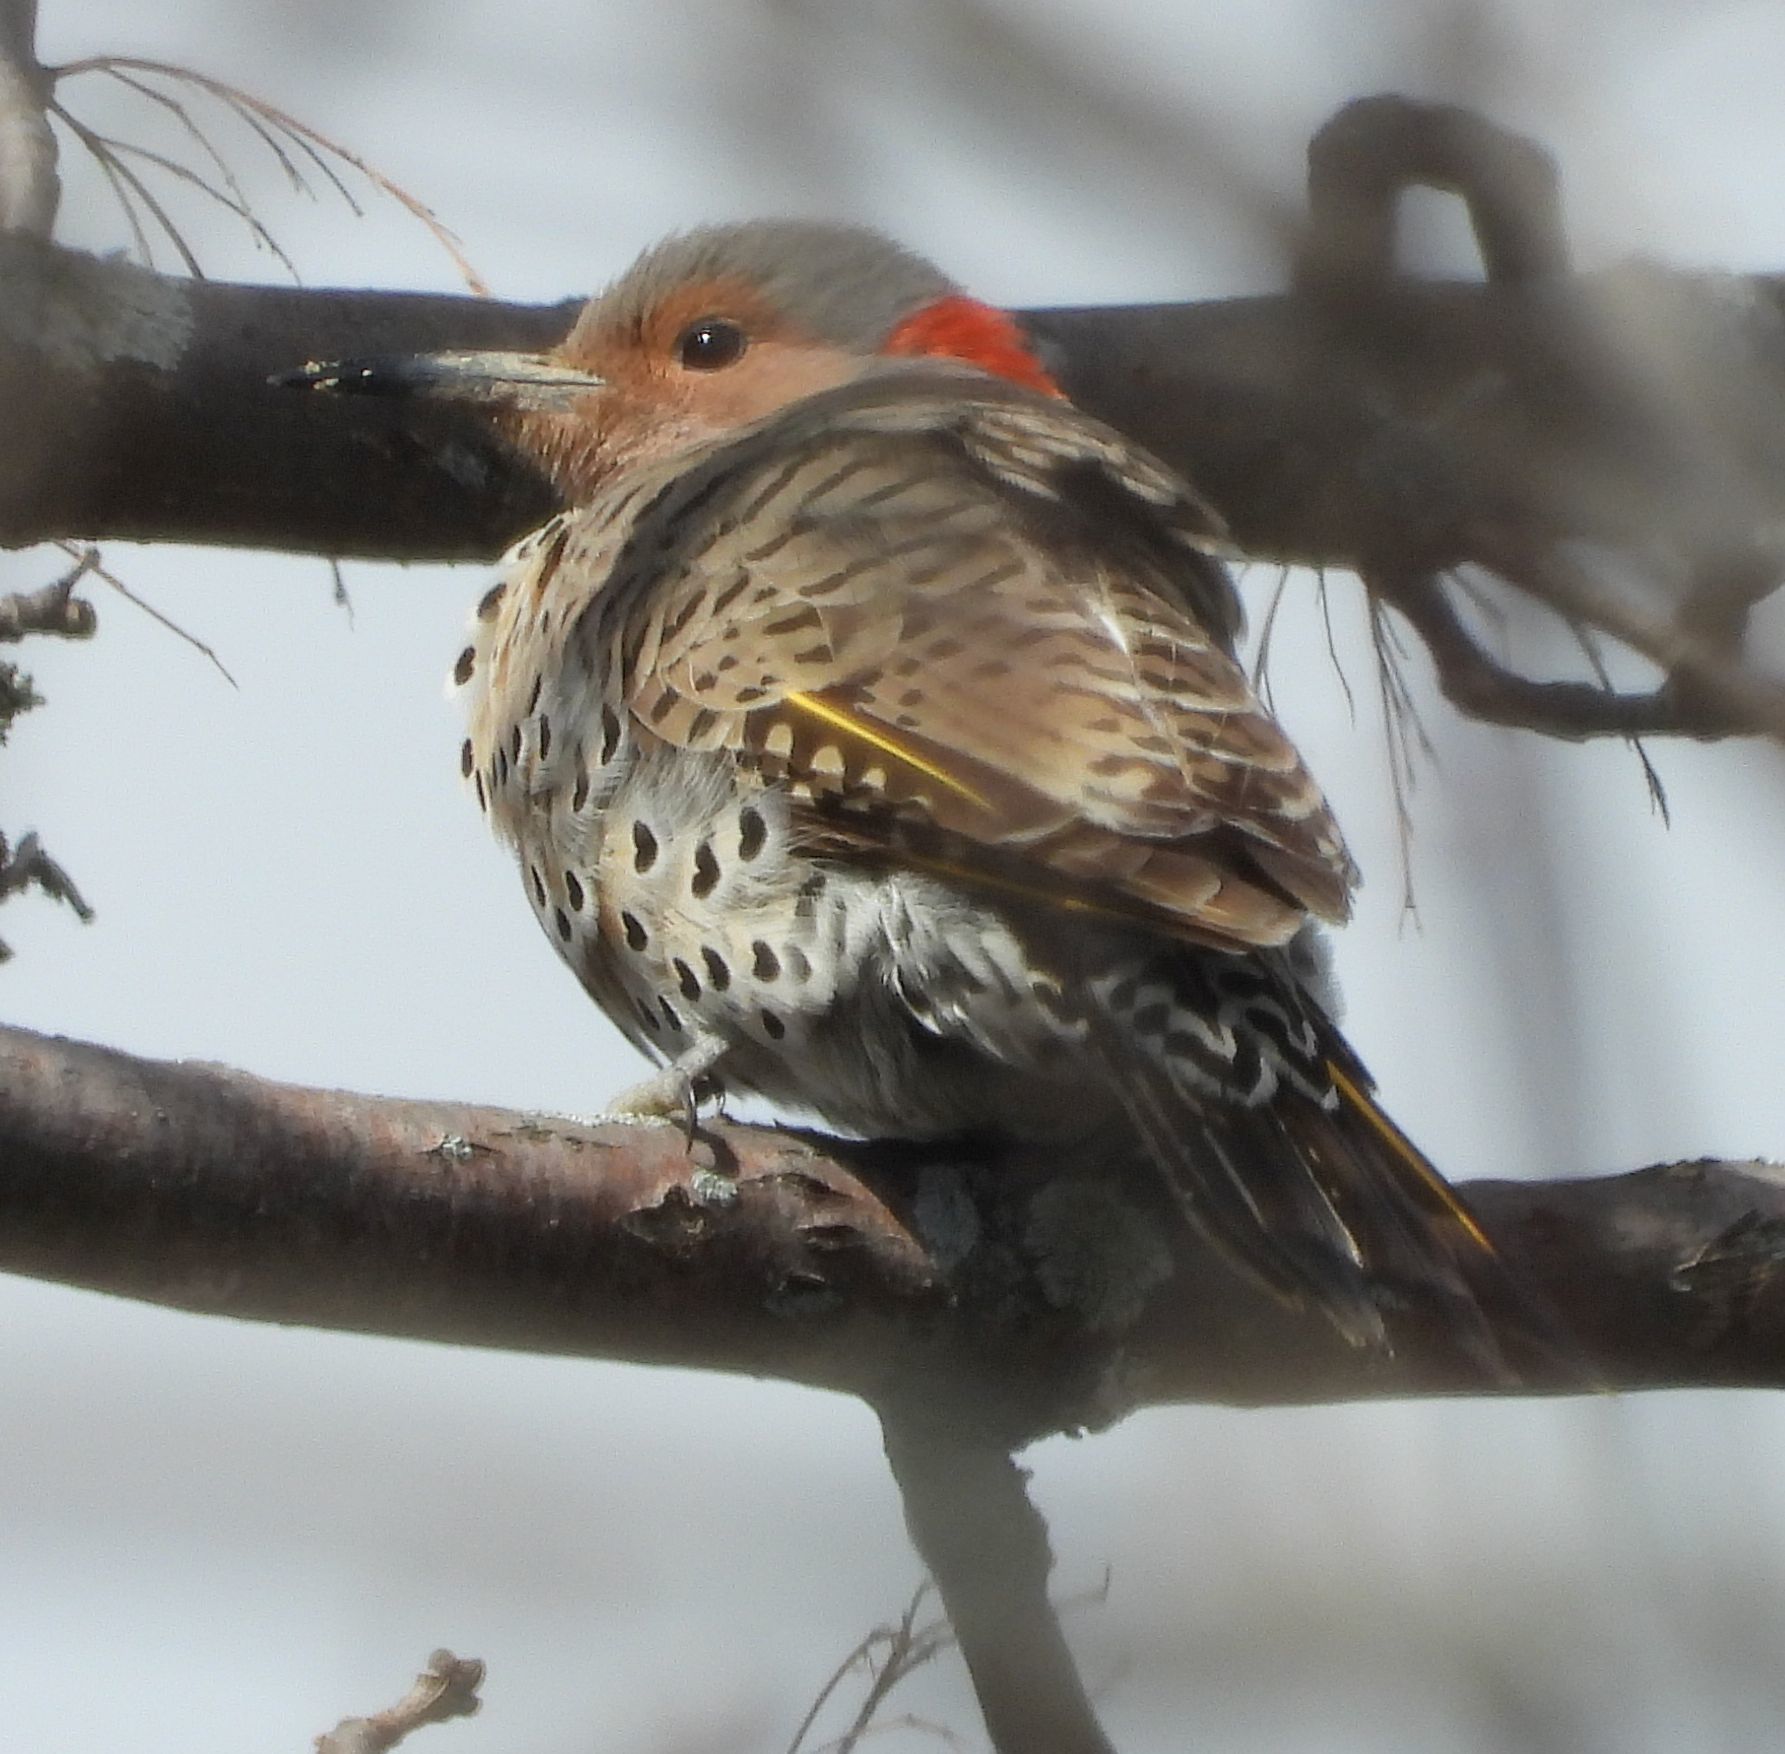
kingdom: Animalia
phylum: Chordata
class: Aves
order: Piciformes
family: Picidae
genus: Colaptes
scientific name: Colaptes auratus
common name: Northern flicker
